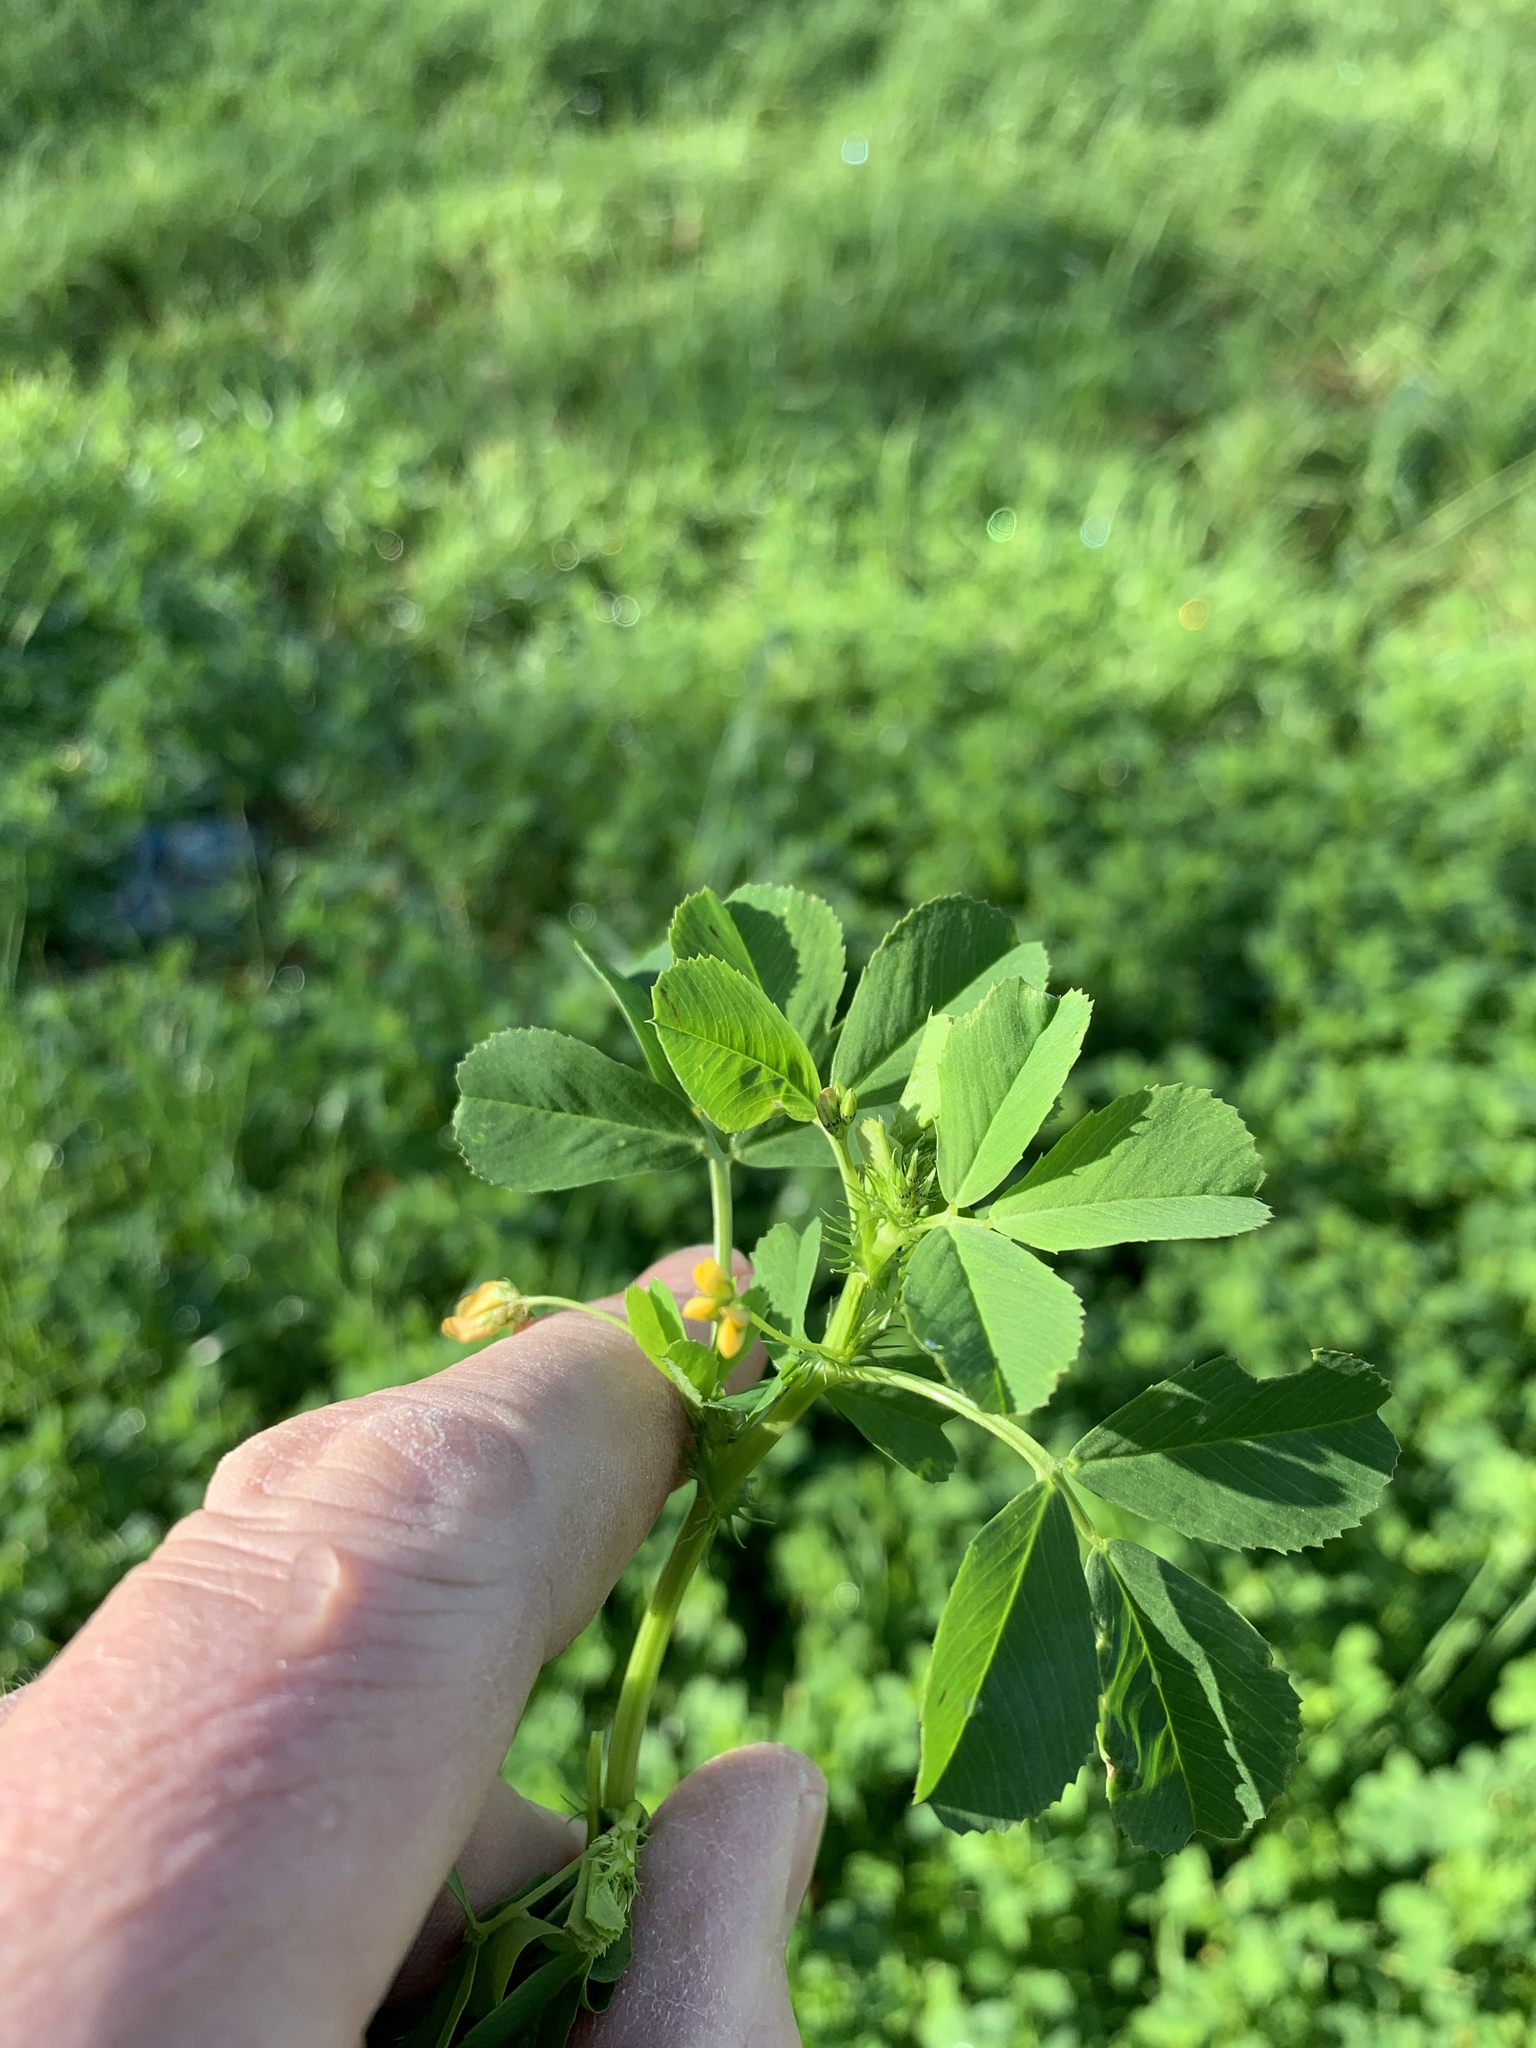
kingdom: Plantae
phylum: Tracheophyta
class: Magnoliopsida
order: Fabales
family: Fabaceae
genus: Medicago
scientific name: Medicago polymorpha
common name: Burclover
